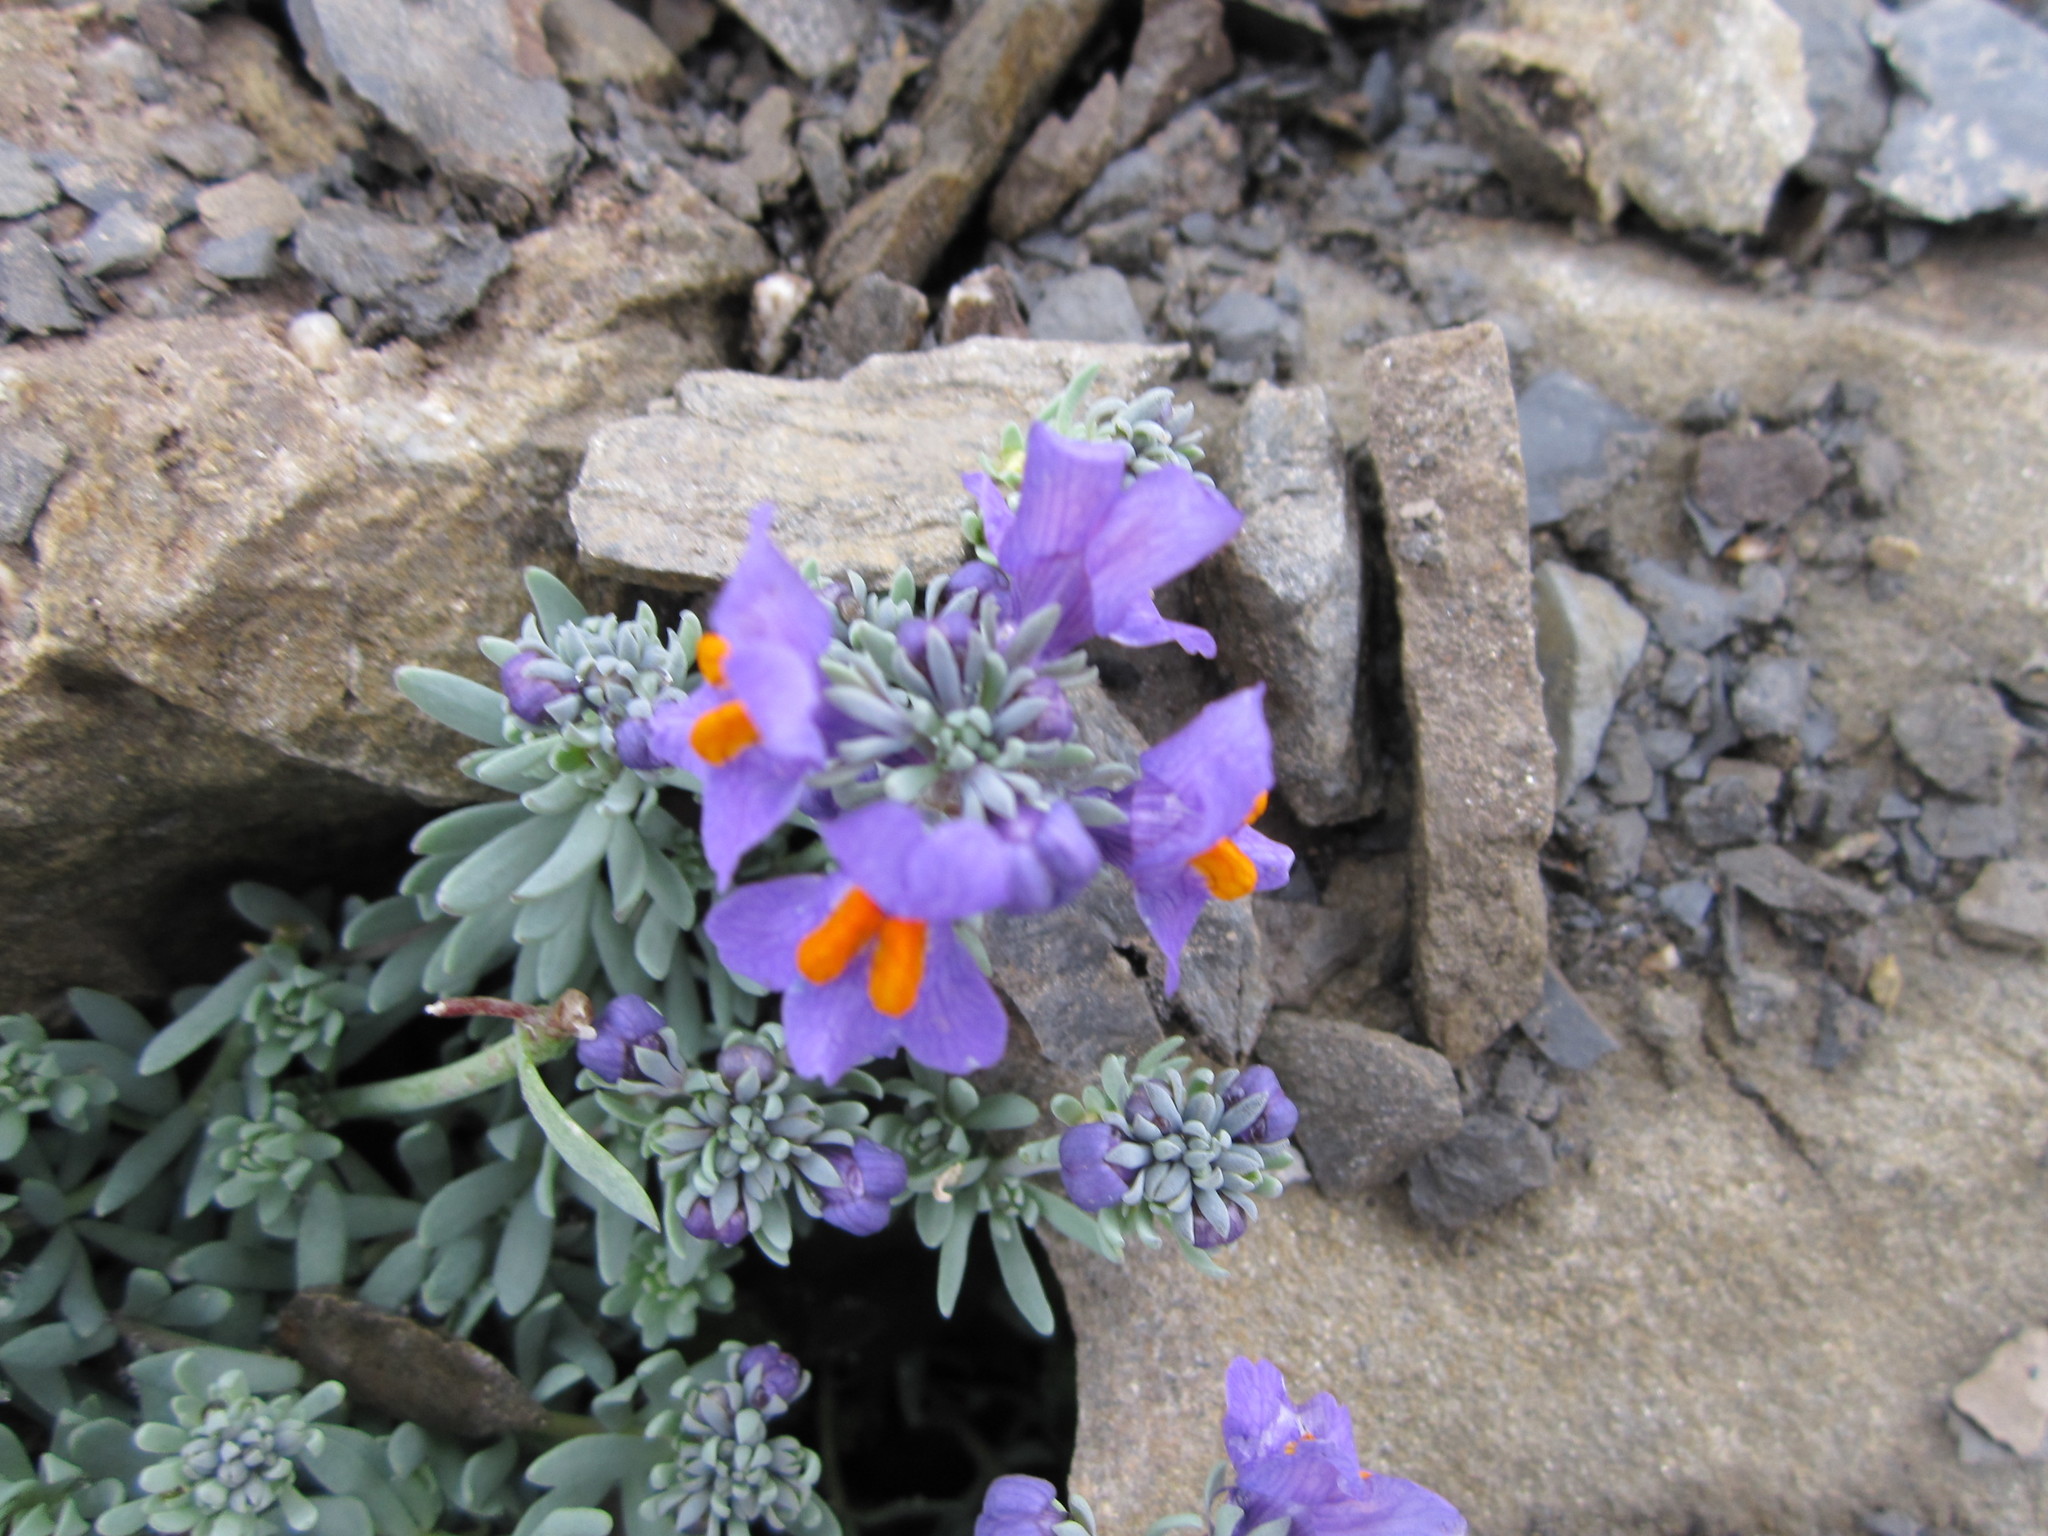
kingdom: Plantae
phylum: Tracheophyta
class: Magnoliopsida
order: Lamiales
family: Plantaginaceae
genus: Linaria
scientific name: Linaria alpina
